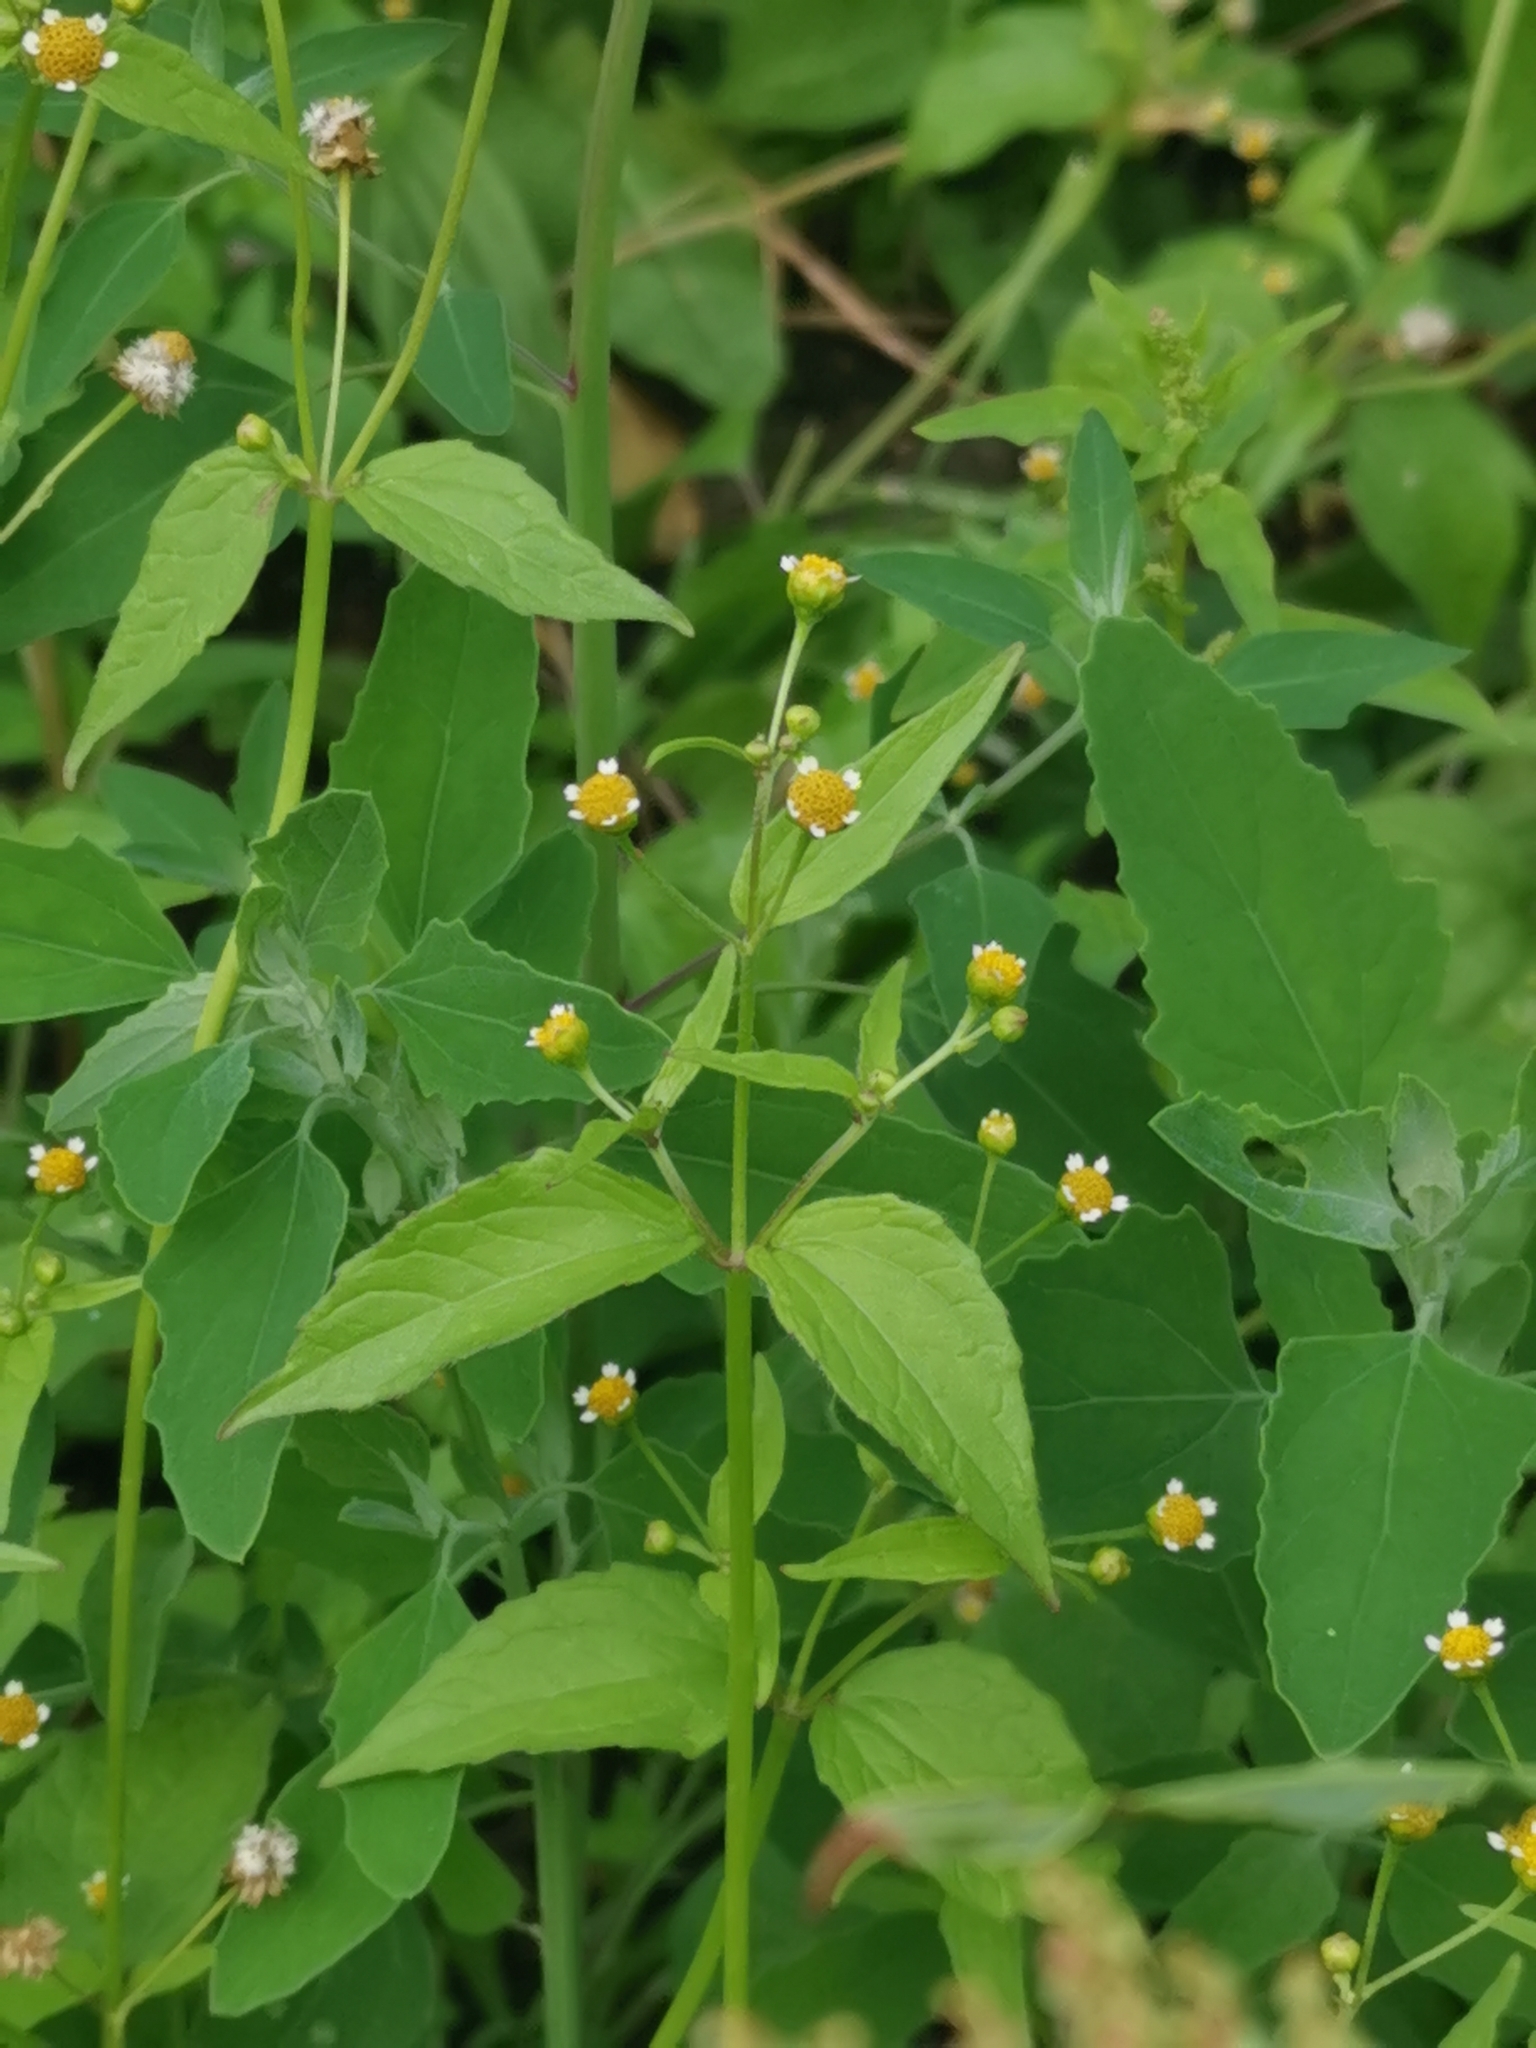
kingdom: Plantae
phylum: Tracheophyta
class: Magnoliopsida
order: Asterales
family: Asteraceae
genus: Galinsoga
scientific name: Galinsoga parviflora
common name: Gallant soldier
